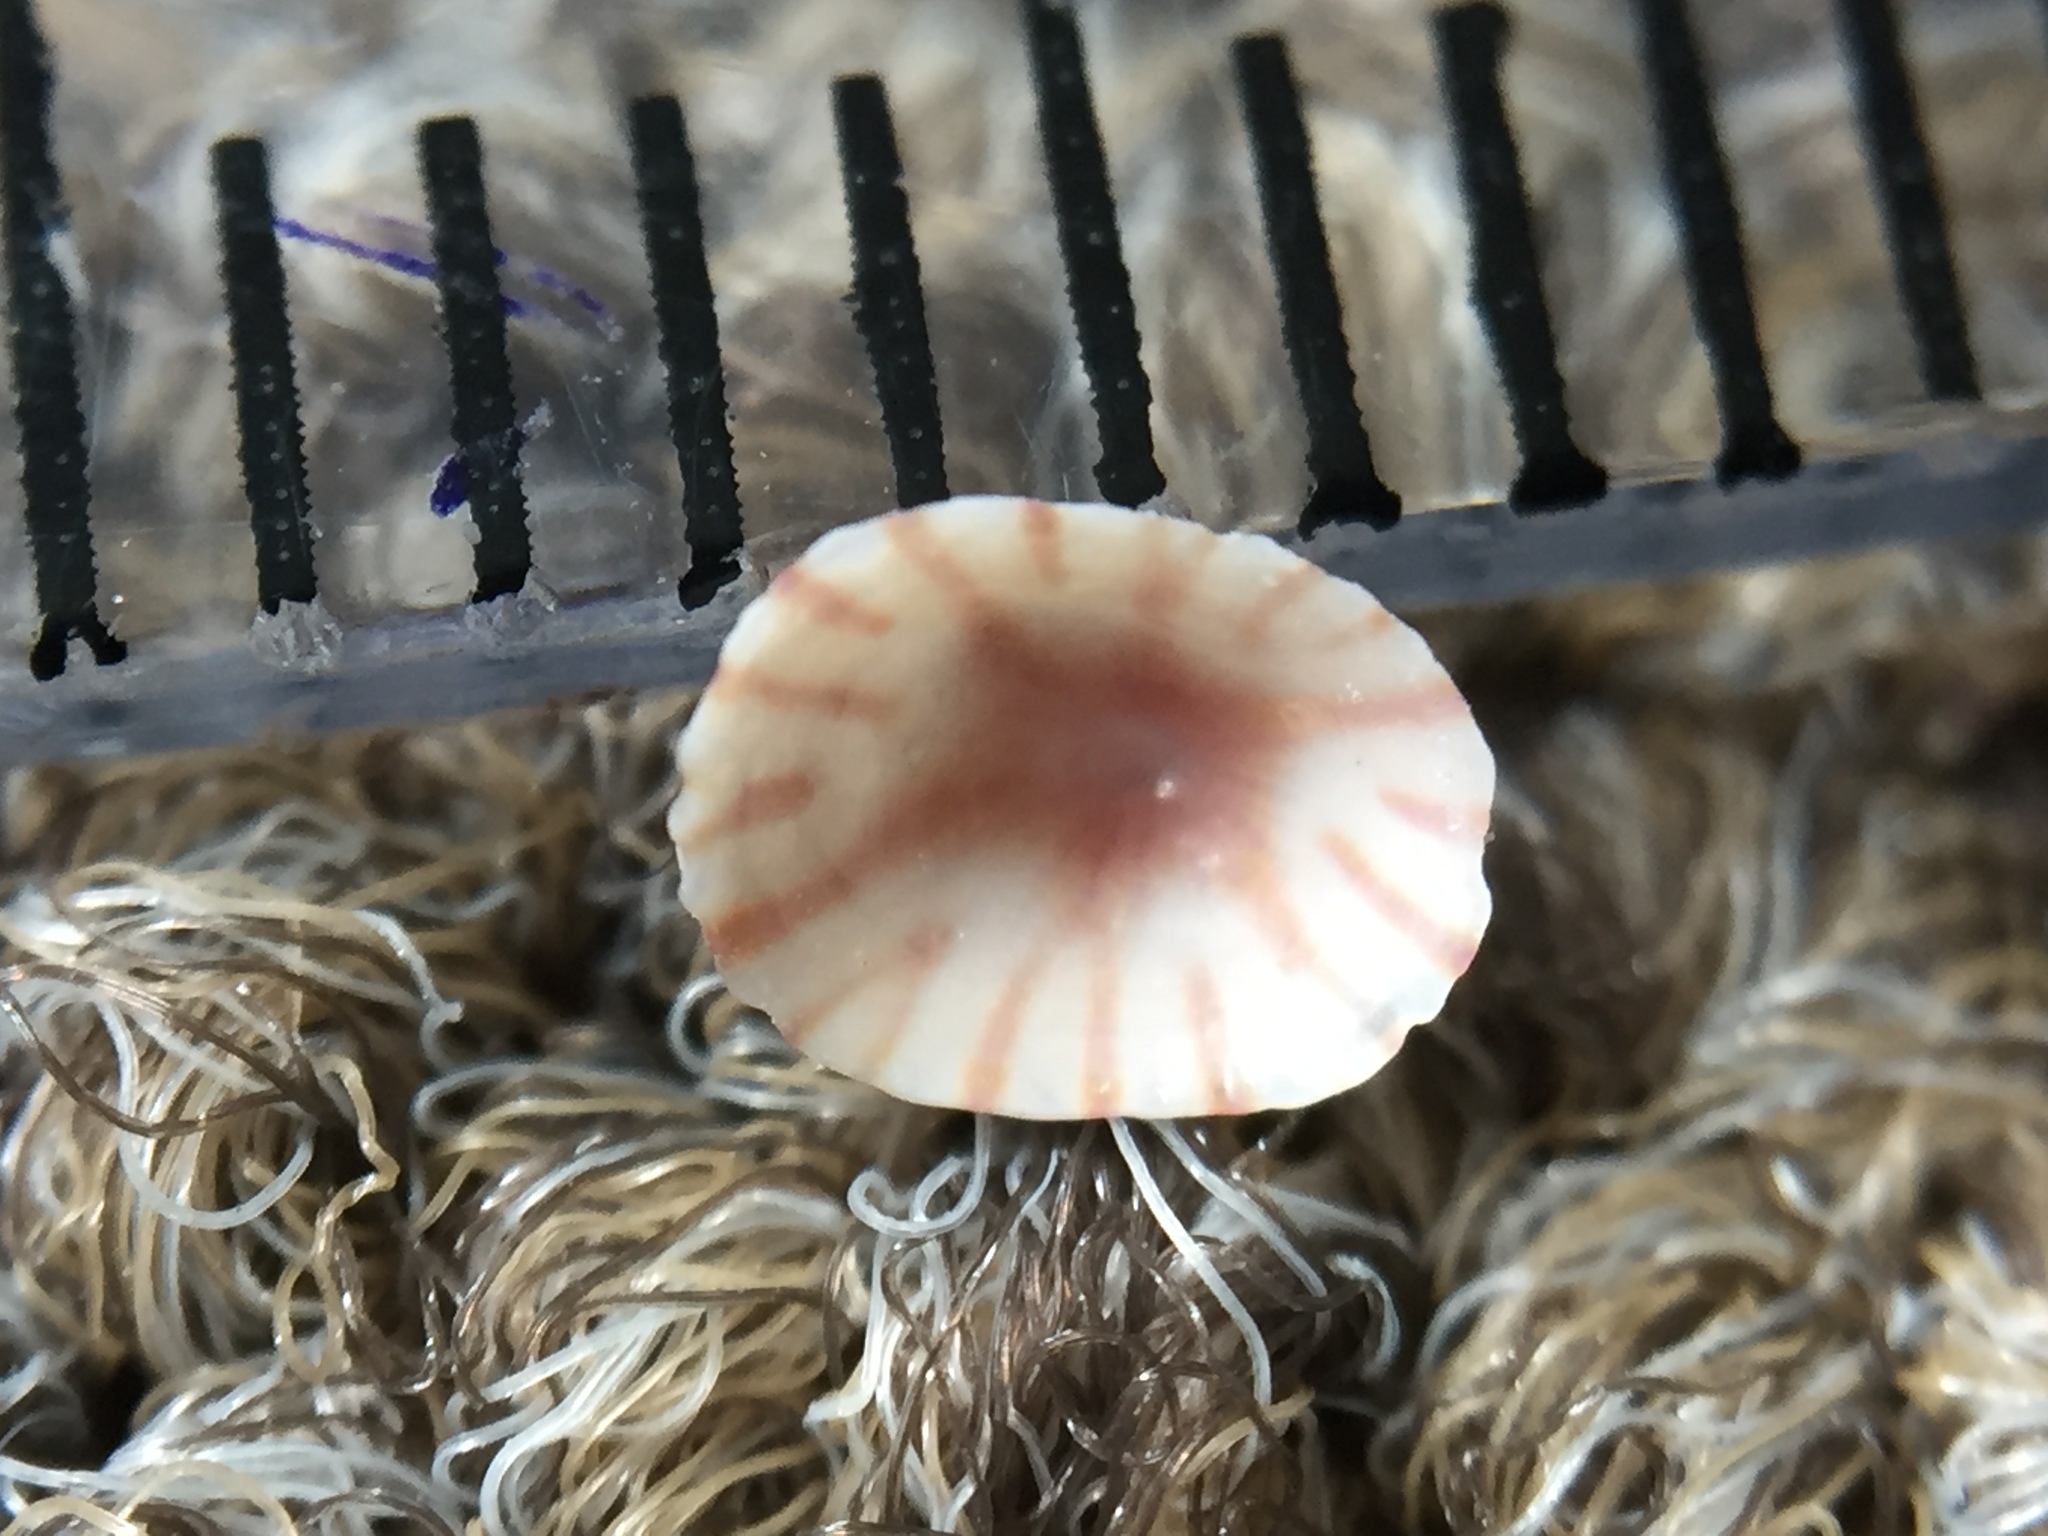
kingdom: Animalia
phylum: Mollusca
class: Gastropoda
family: Lottiidae
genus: Asteracmea
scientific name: Asteracmea suteri
